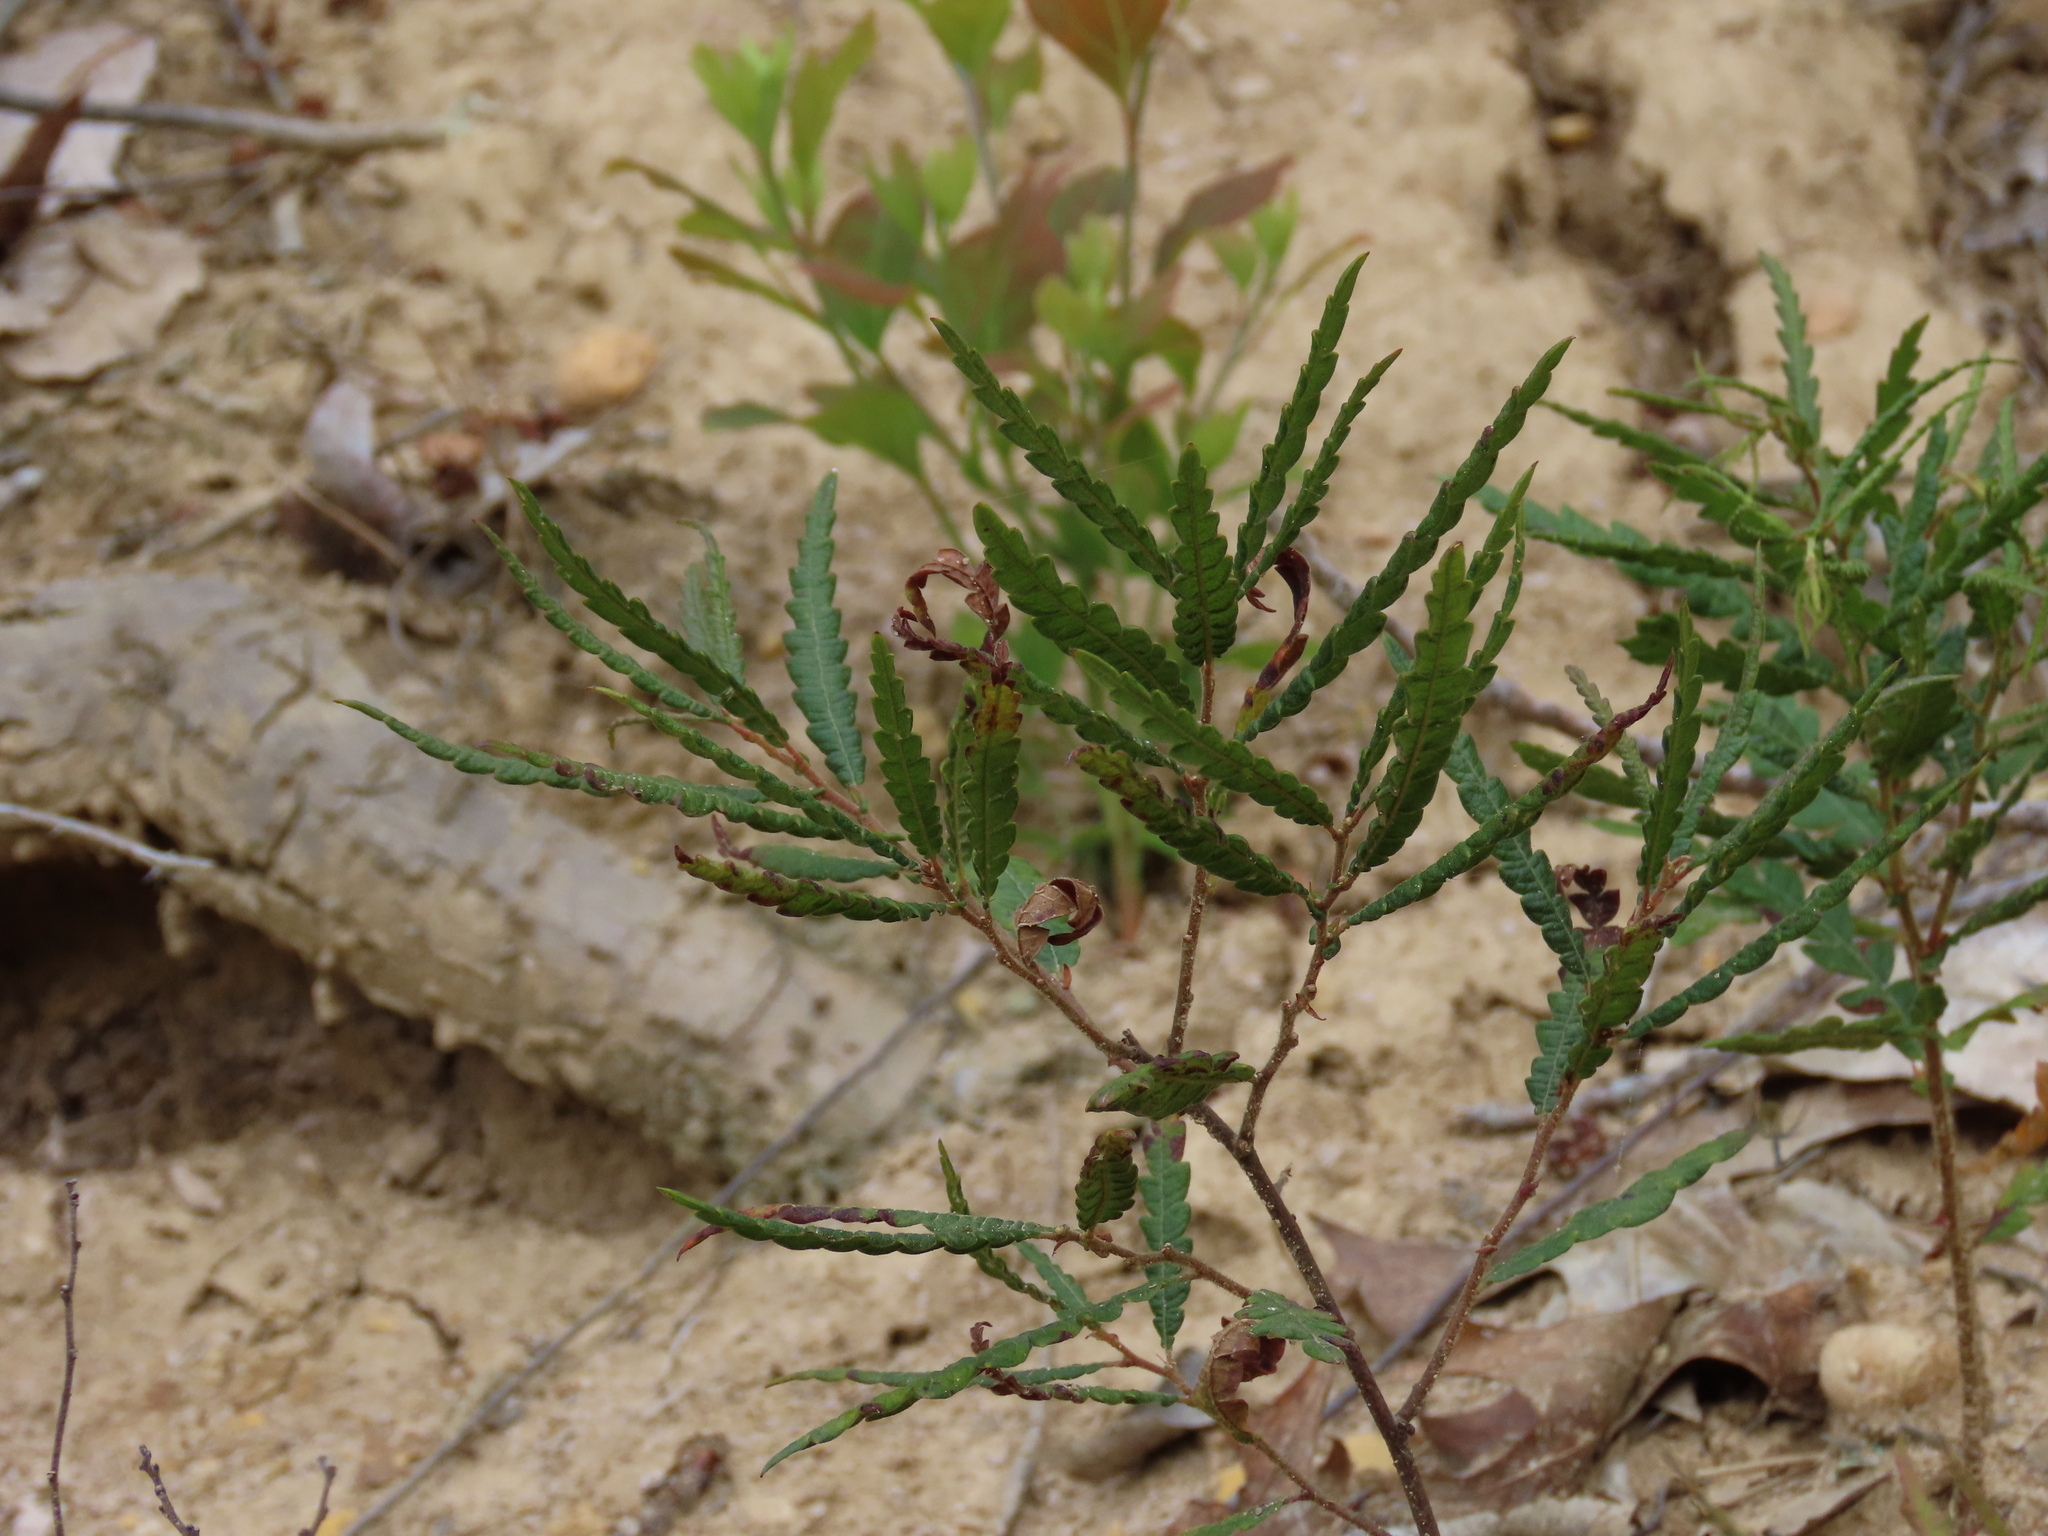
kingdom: Plantae
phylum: Tracheophyta
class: Magnoliopsida
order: Fagales
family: Myricaceae
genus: Comptonia
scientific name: Comptonia peregrina
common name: Sweet-fern
